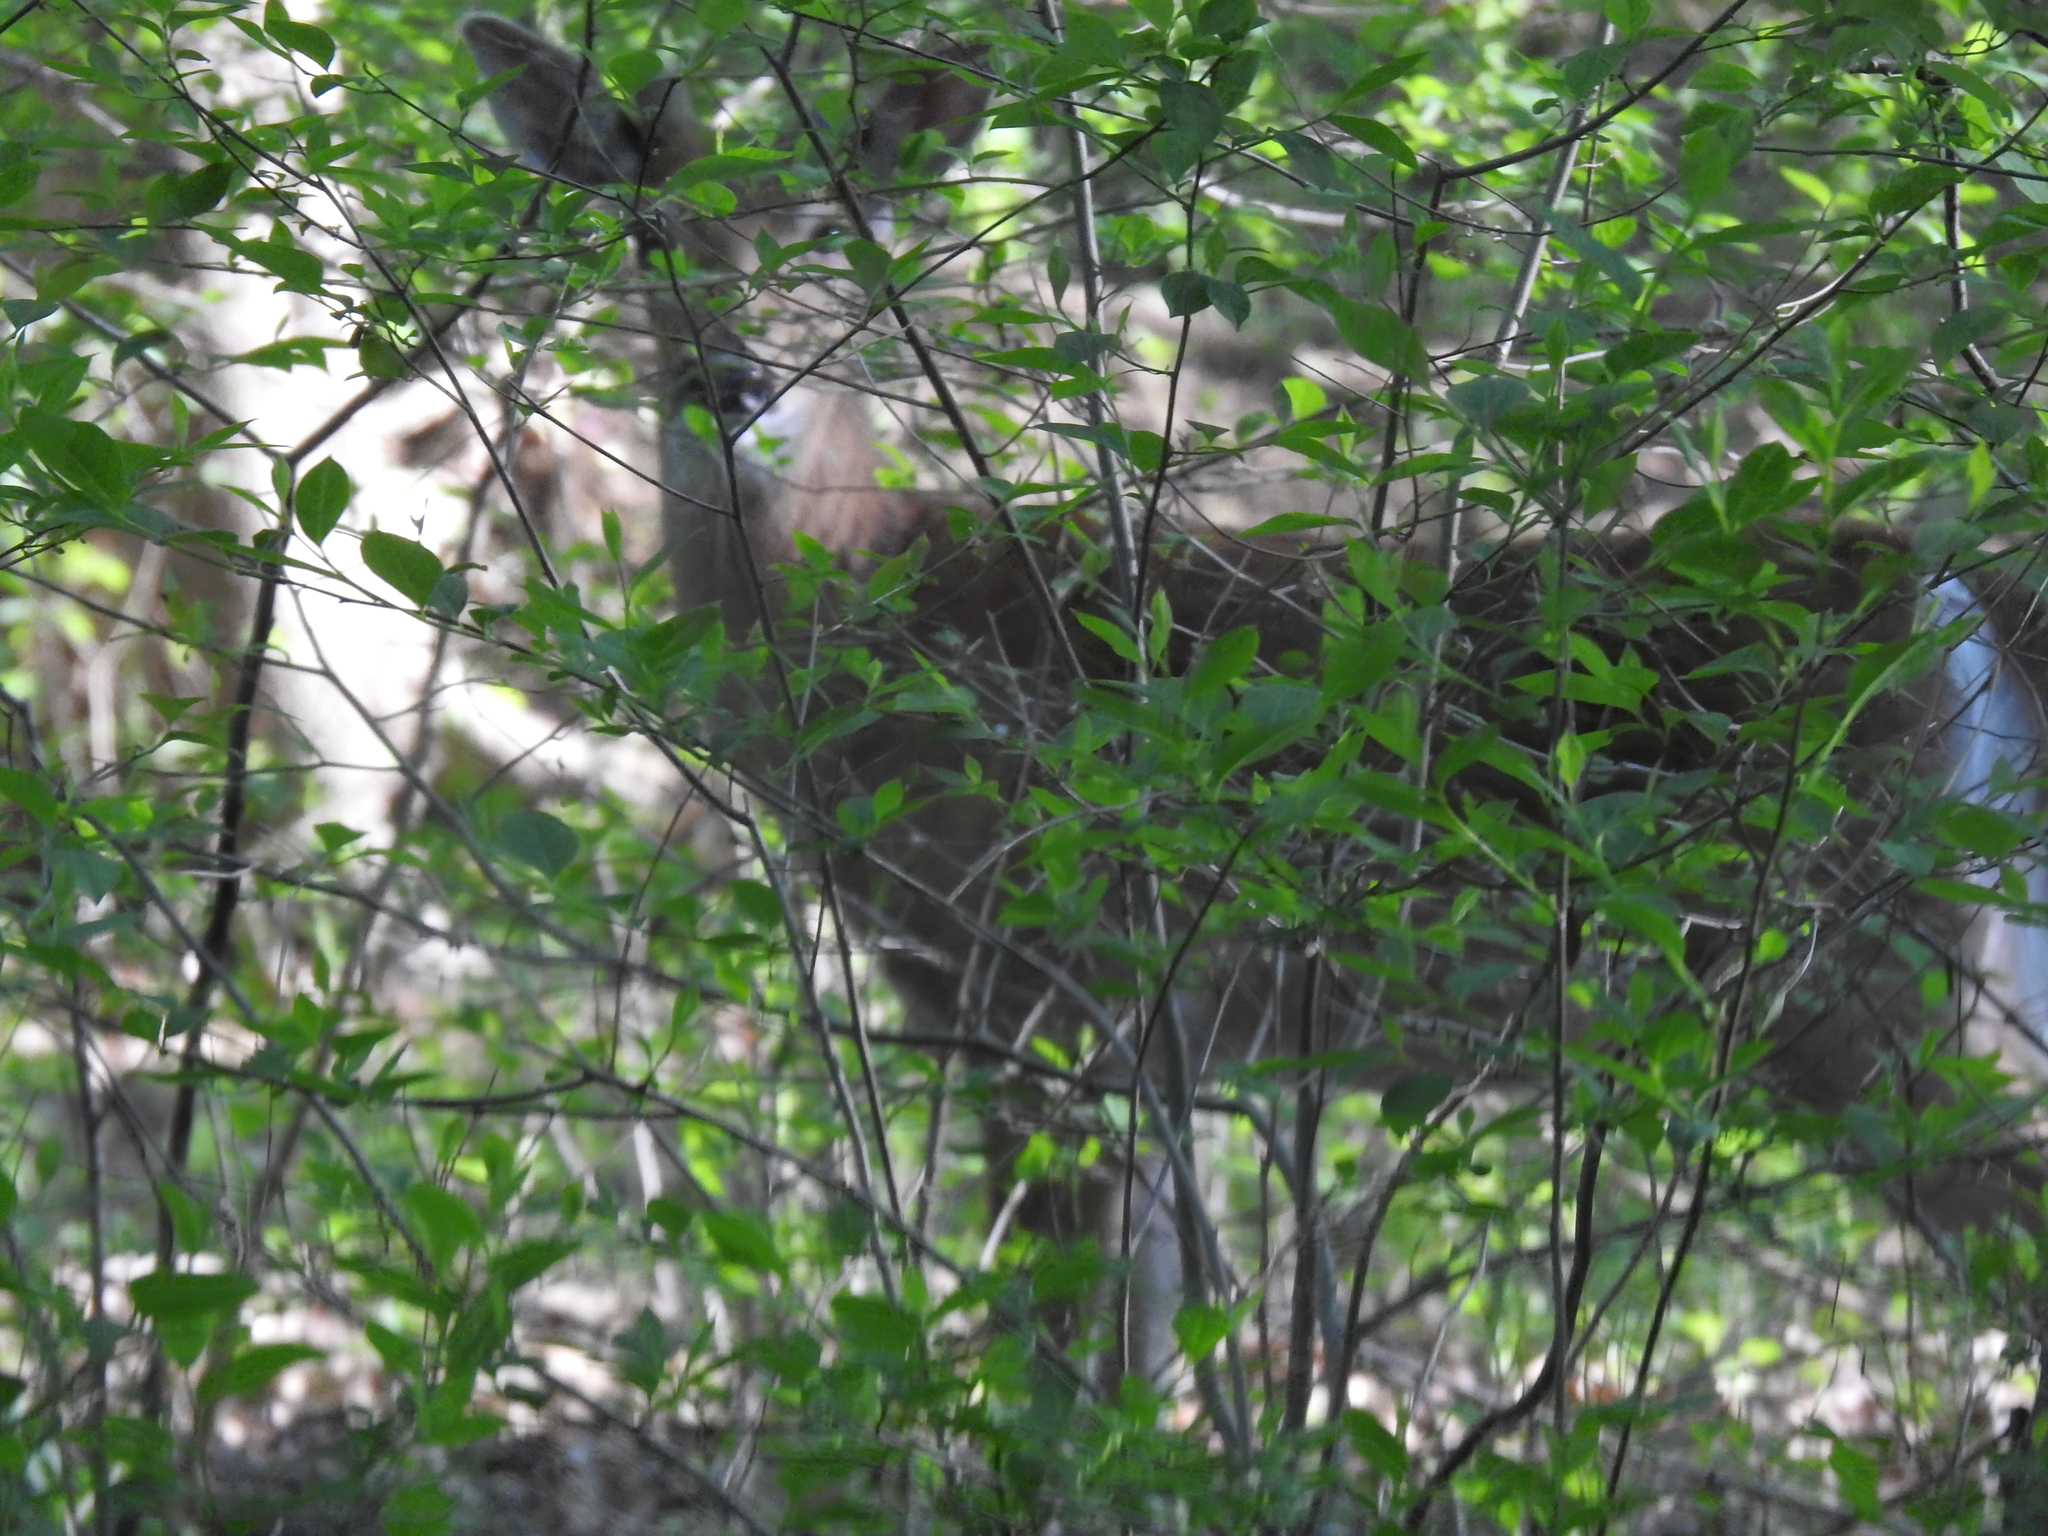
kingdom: Animalia
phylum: Chordata
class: Mammalia
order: Artiodactyla
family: Cervidae
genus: Odocoileus
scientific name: Odocoileus virginianus
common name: White-tailed deer
